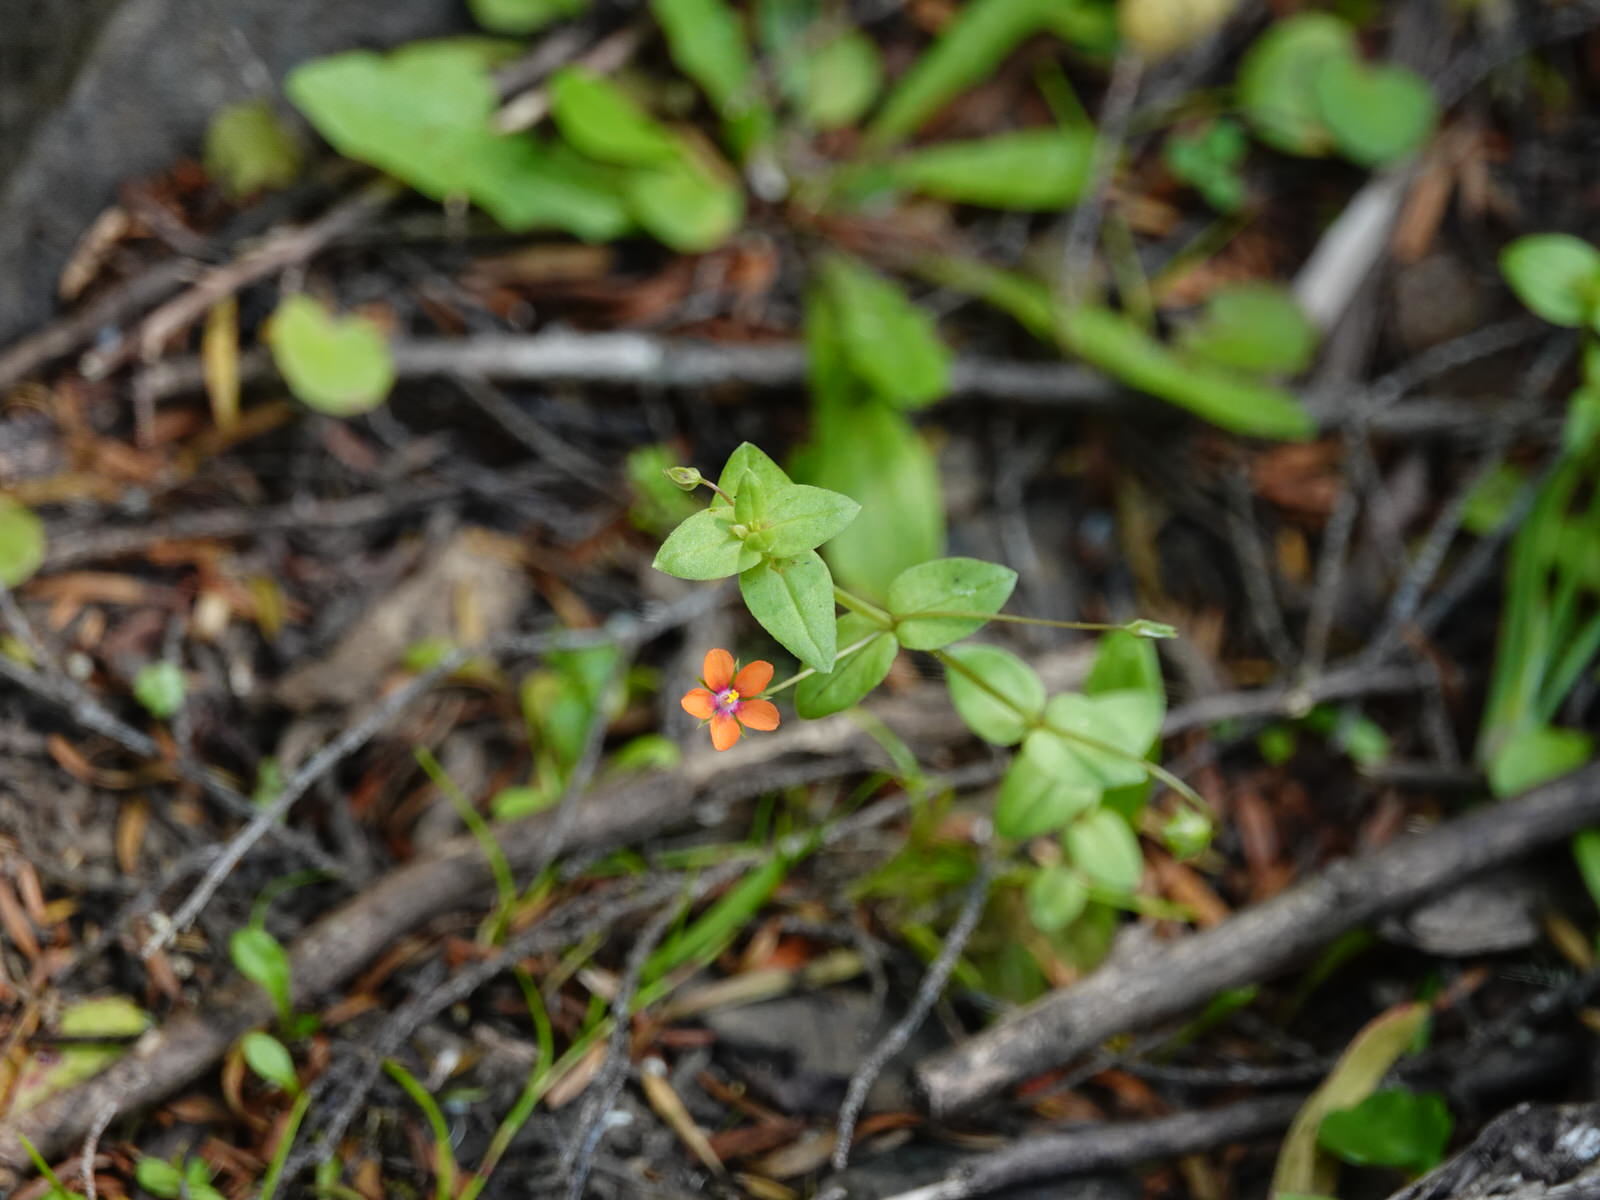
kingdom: Plantae
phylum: Tracheophyta
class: Magnoliopsida
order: Ericales
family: Primulaceae
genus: Lysimachia
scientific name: Lysimachia arvensis
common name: Scarlet pimpernel
